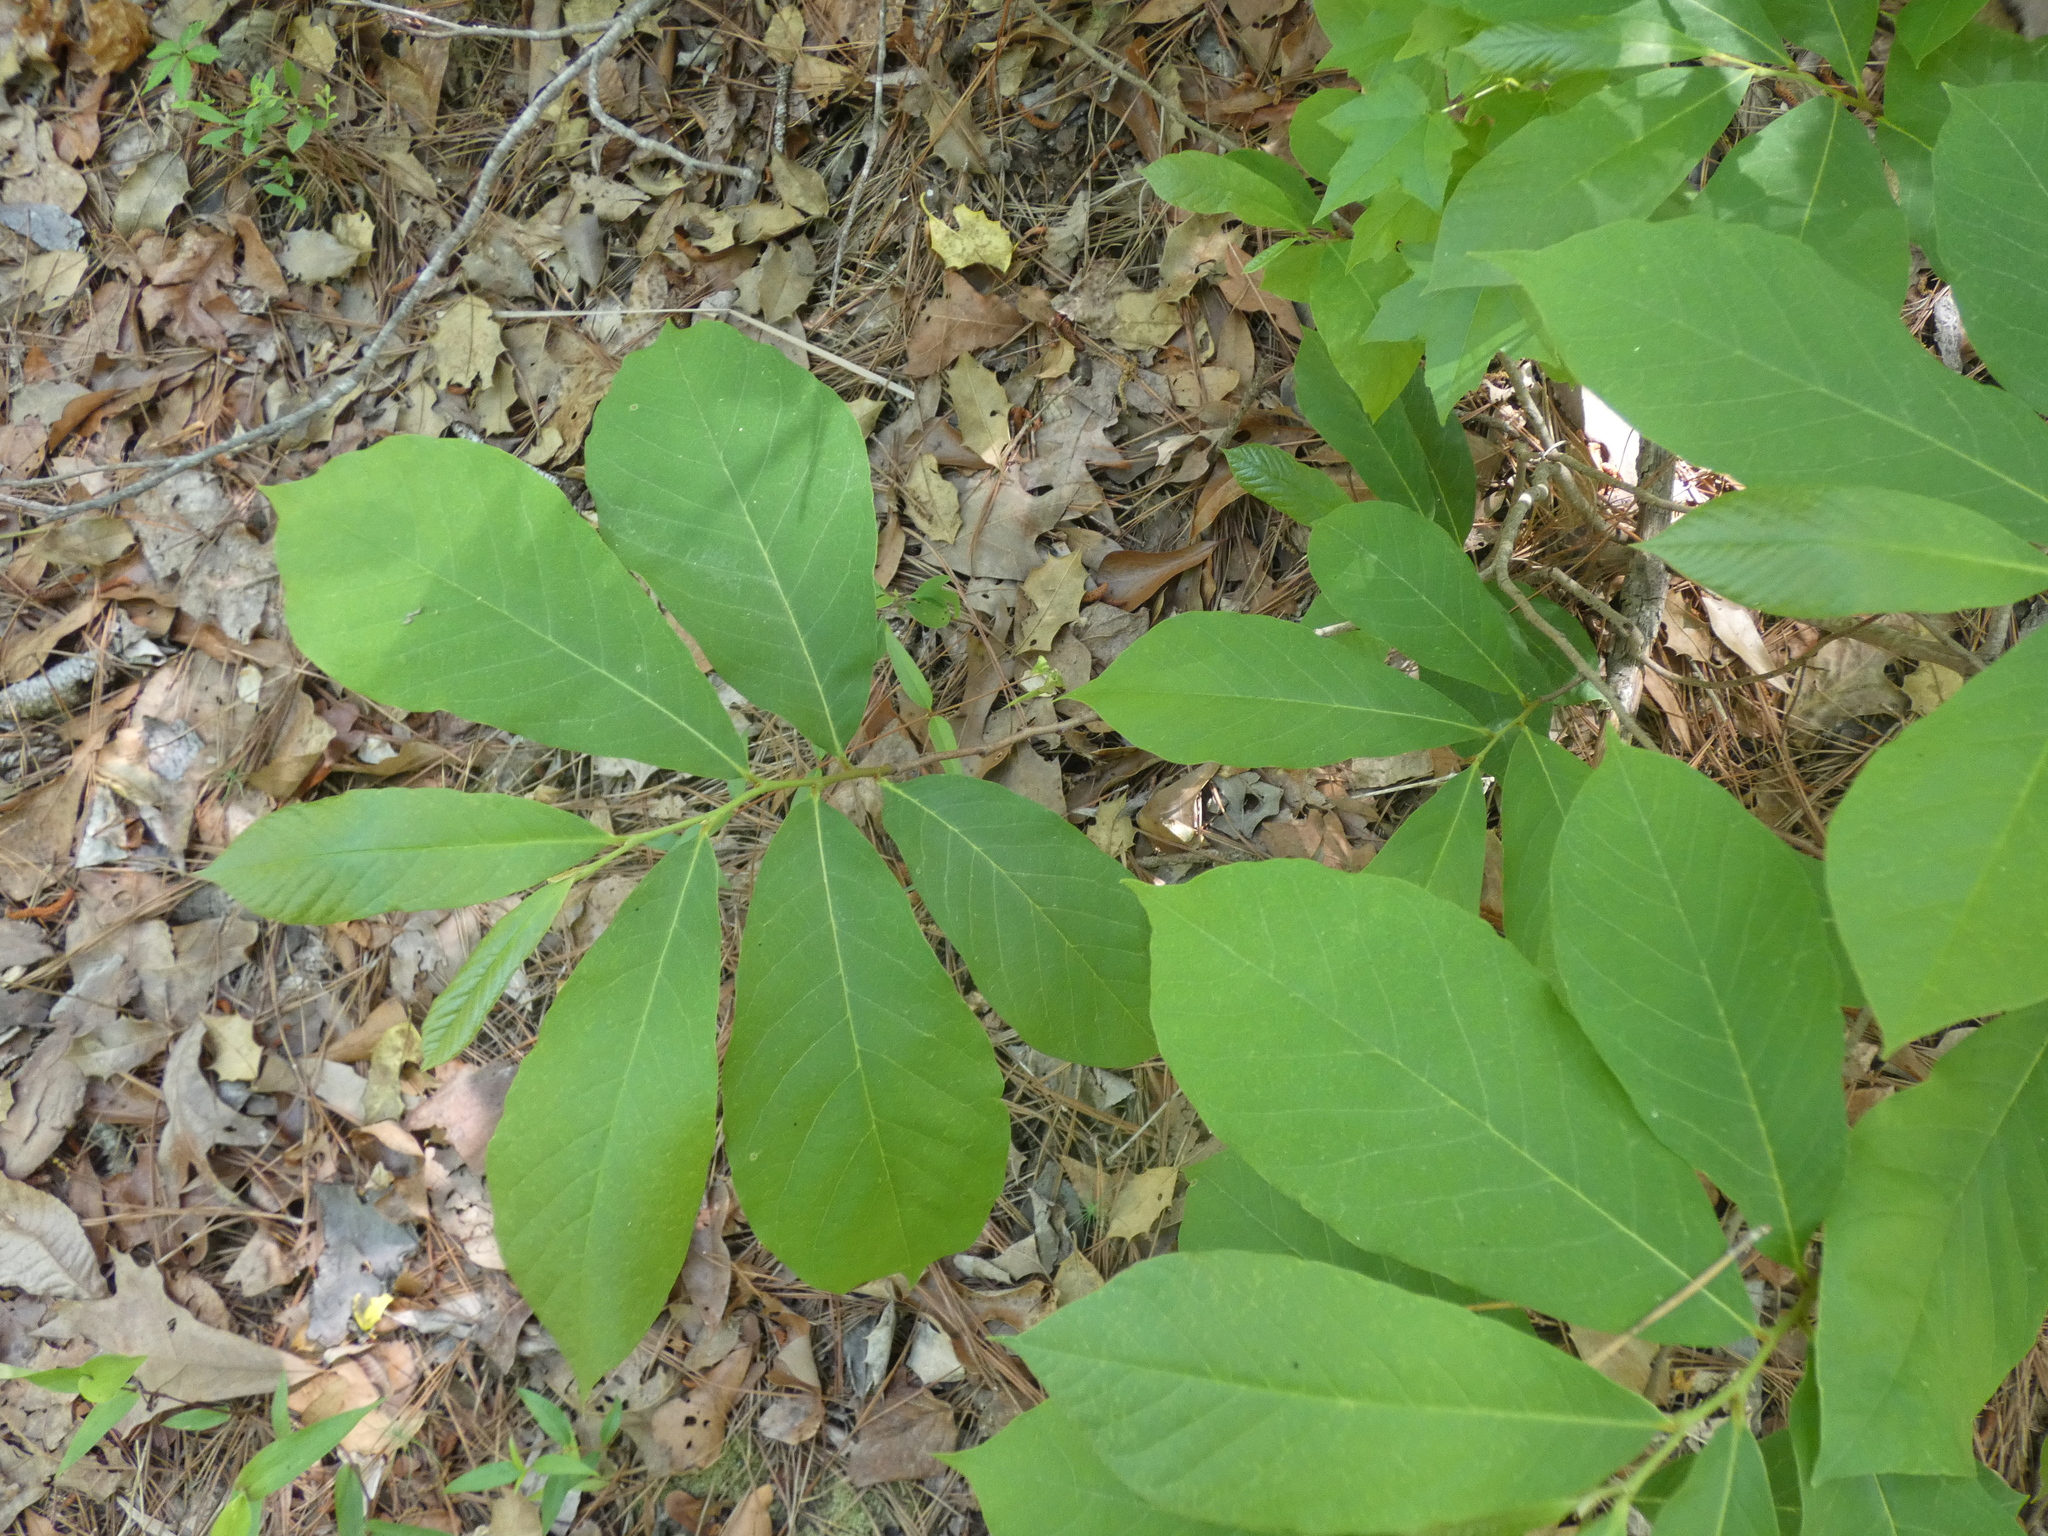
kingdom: Plantae
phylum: Tracheophyta
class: Magnoliopsida
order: Magnoliales
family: Annonaceae
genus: Asimina
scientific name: Asimina parviflora
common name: Dwarf pawpaw
